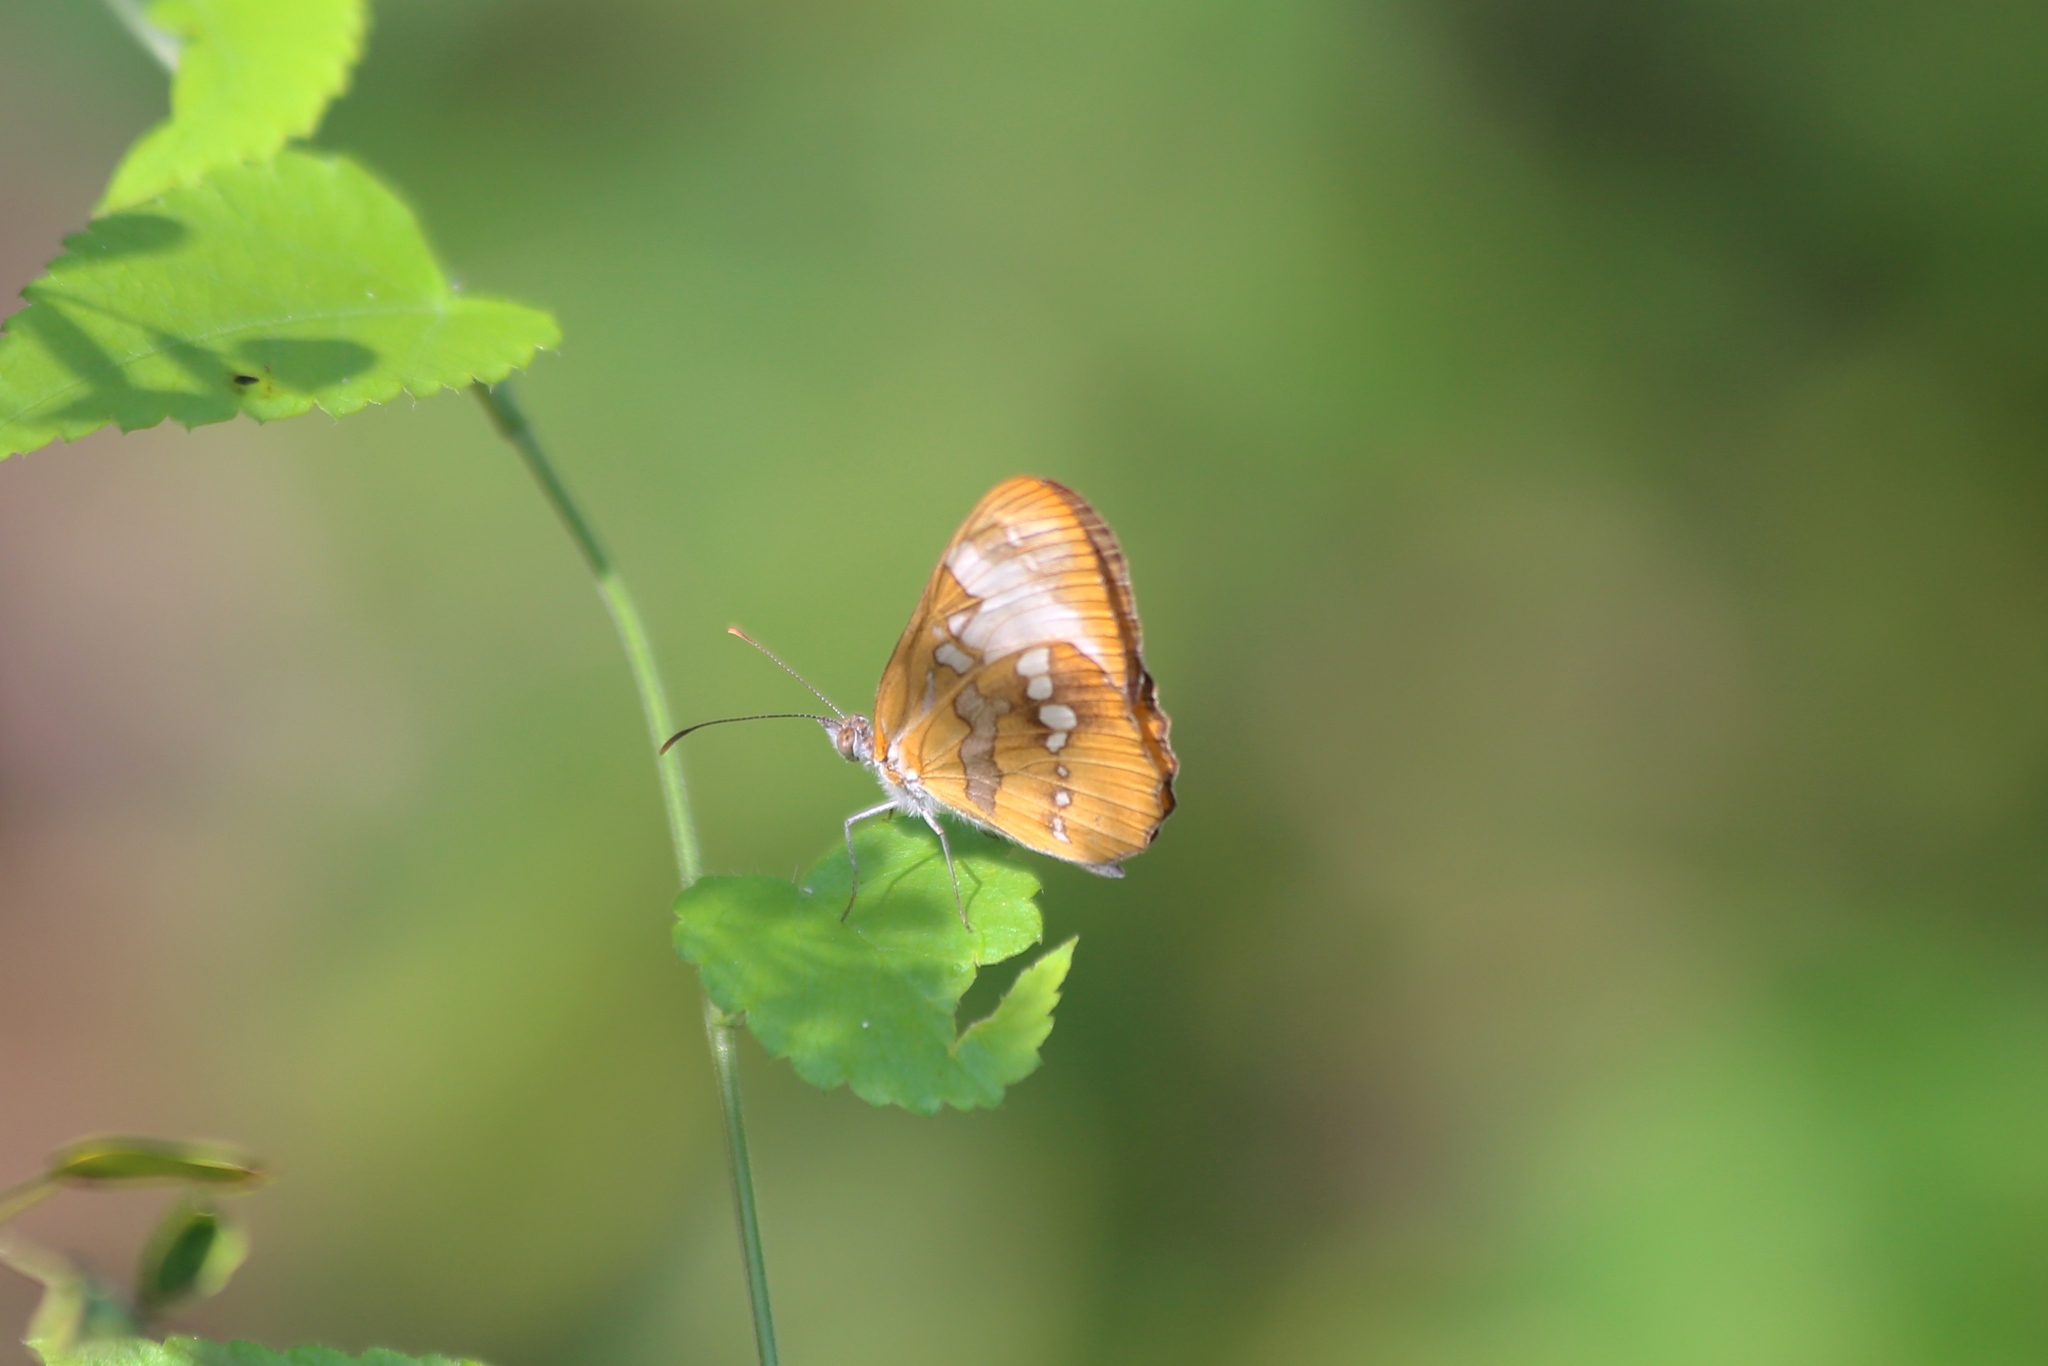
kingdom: Animalia
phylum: Arthropoda
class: Insecta
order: Lepidoptera
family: Nymphalidae
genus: Mestra
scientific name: Mestra amymone
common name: Common mestra
